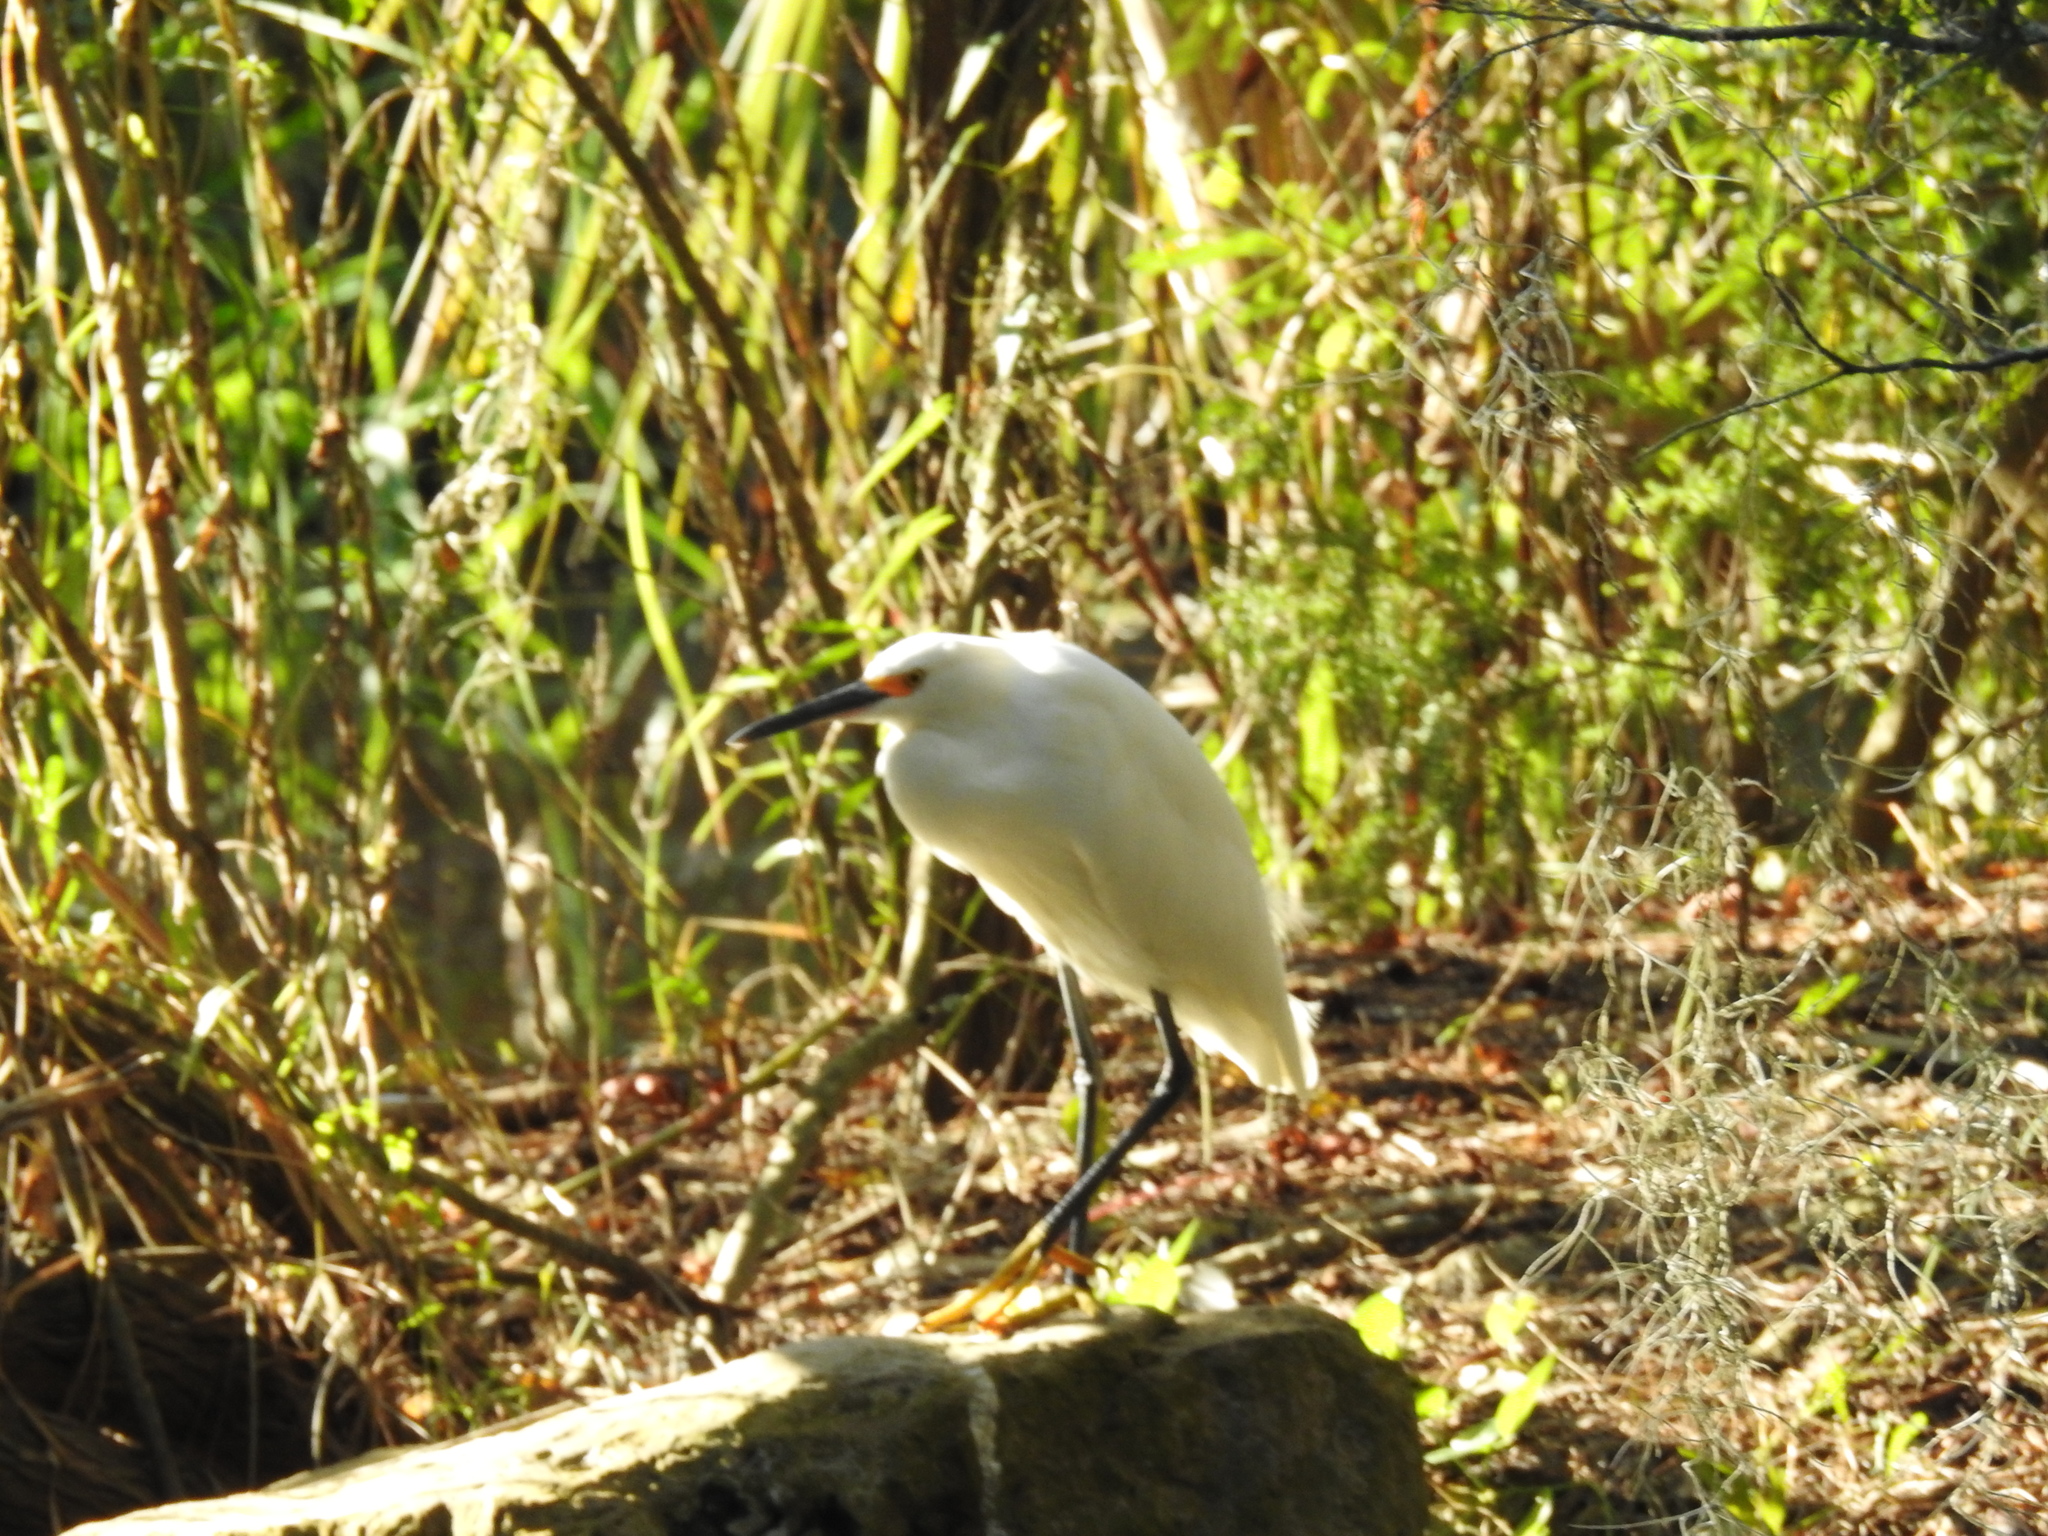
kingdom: Animalia
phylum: Chordata
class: Aves
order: Pelecaniformes
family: Ardeidae
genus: Egretta
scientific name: Egretta thula
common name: Snowy egret
